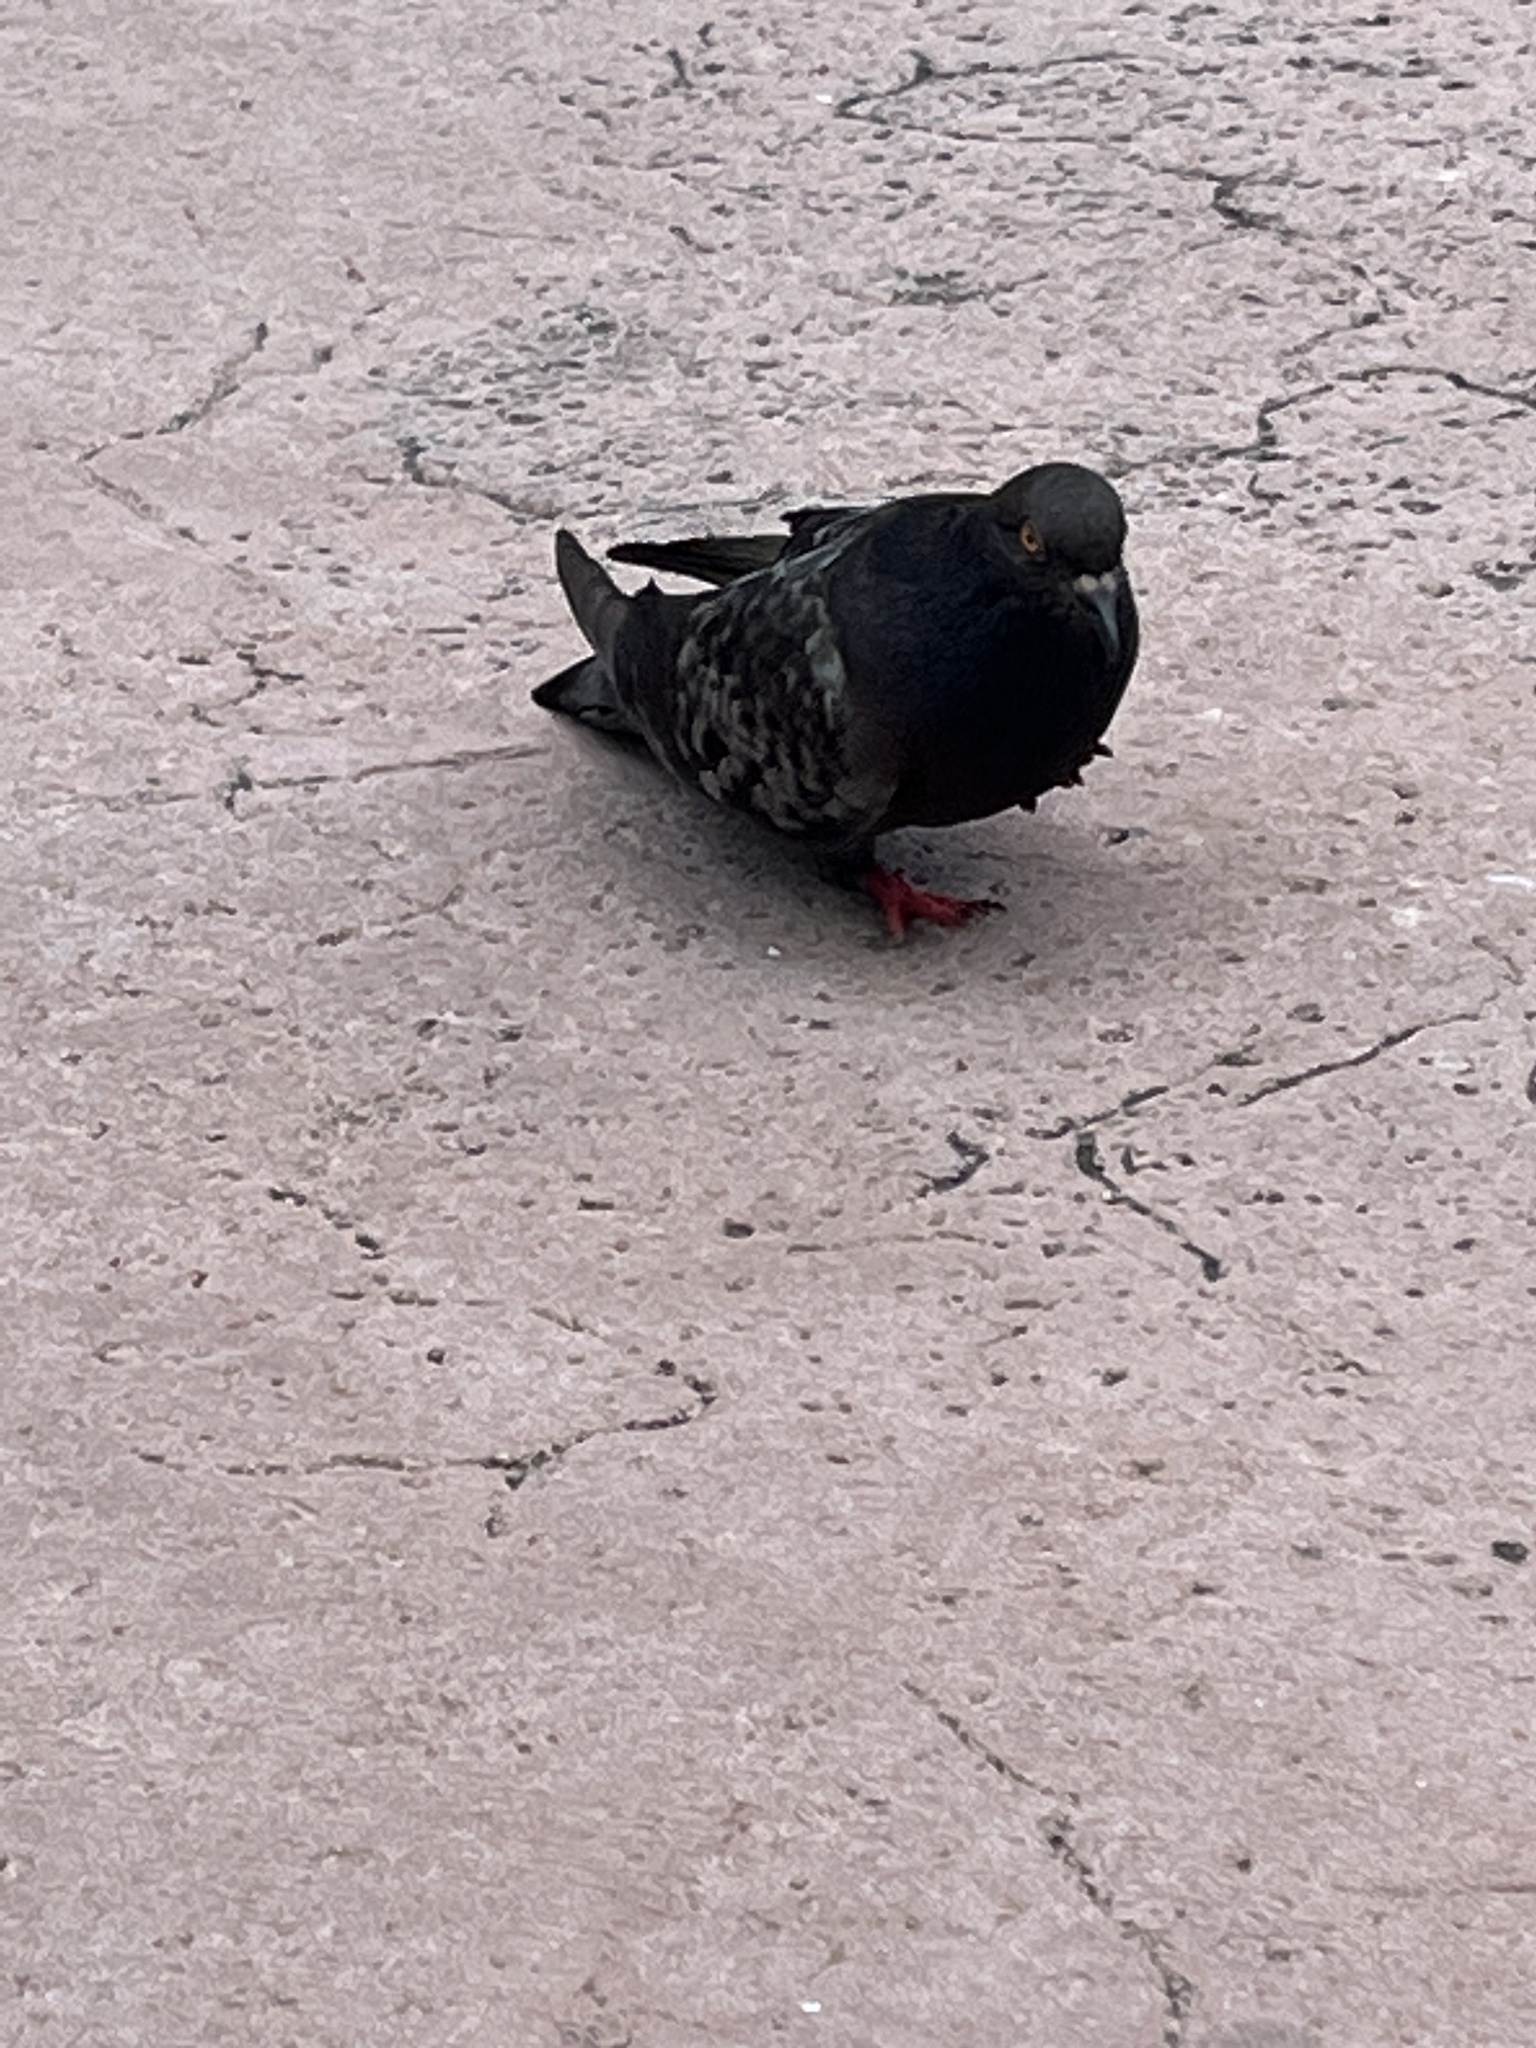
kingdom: Animalia
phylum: Chordata
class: Aves
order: Columbiformes
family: Columbidae
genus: Columba
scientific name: Columba livia
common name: Rock pigeon
